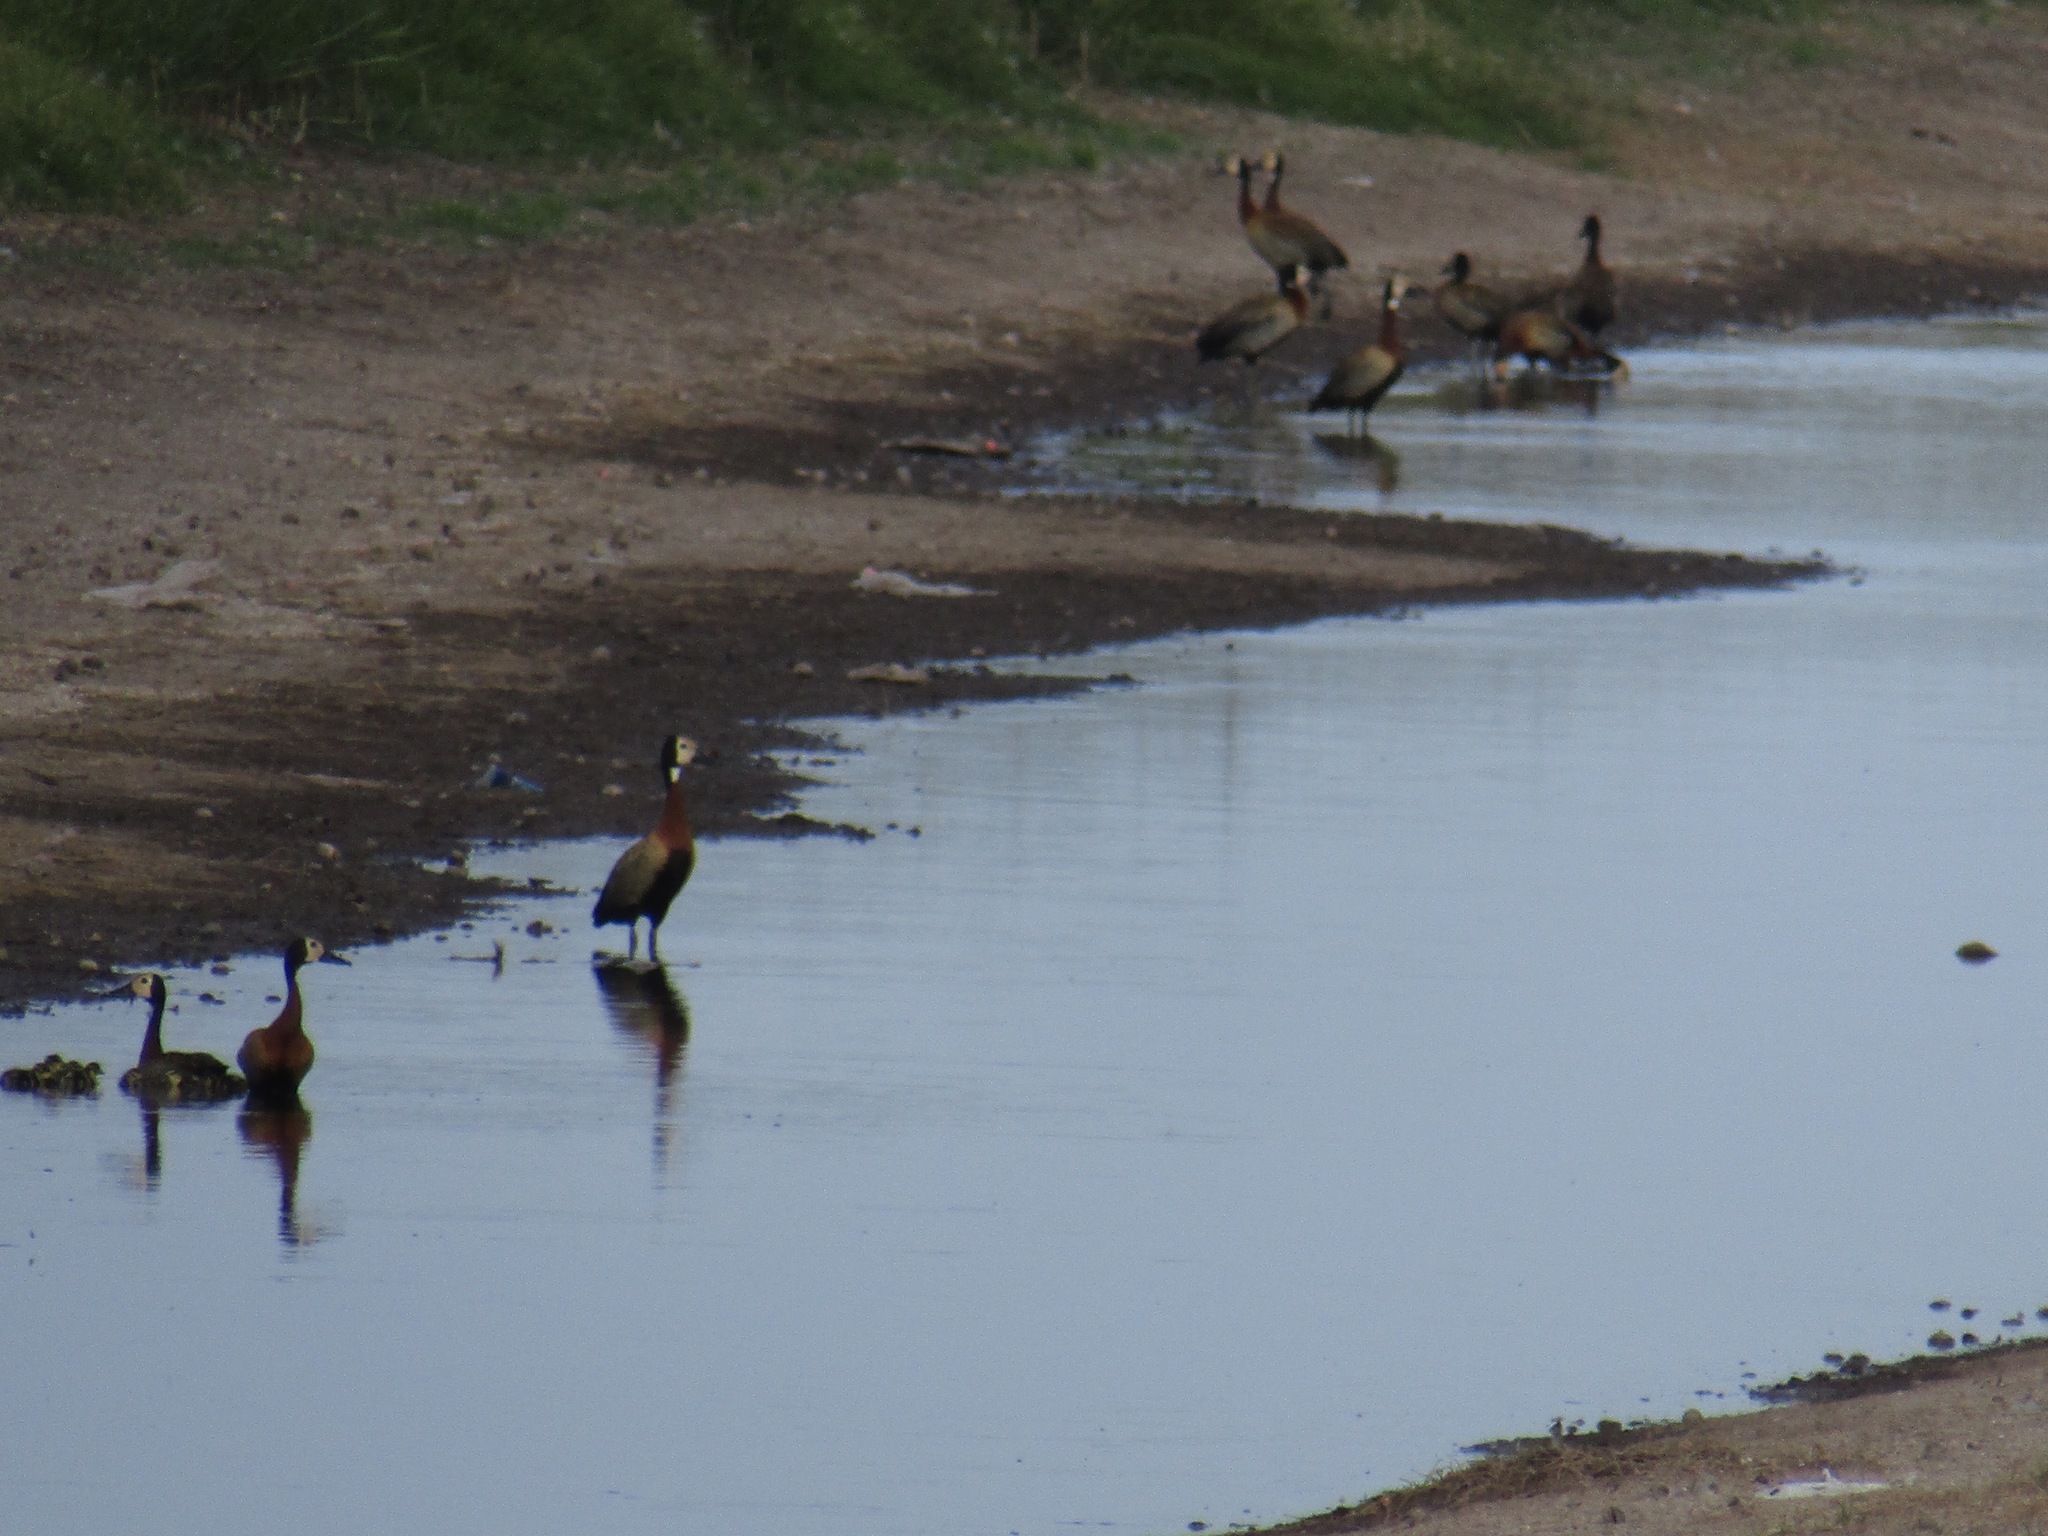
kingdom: Animalia
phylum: Chordata
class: Aves
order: Anseriformes
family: Anatidae
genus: Dendrocygna
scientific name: Dendrocygna viduata
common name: White-faced whistling duck
